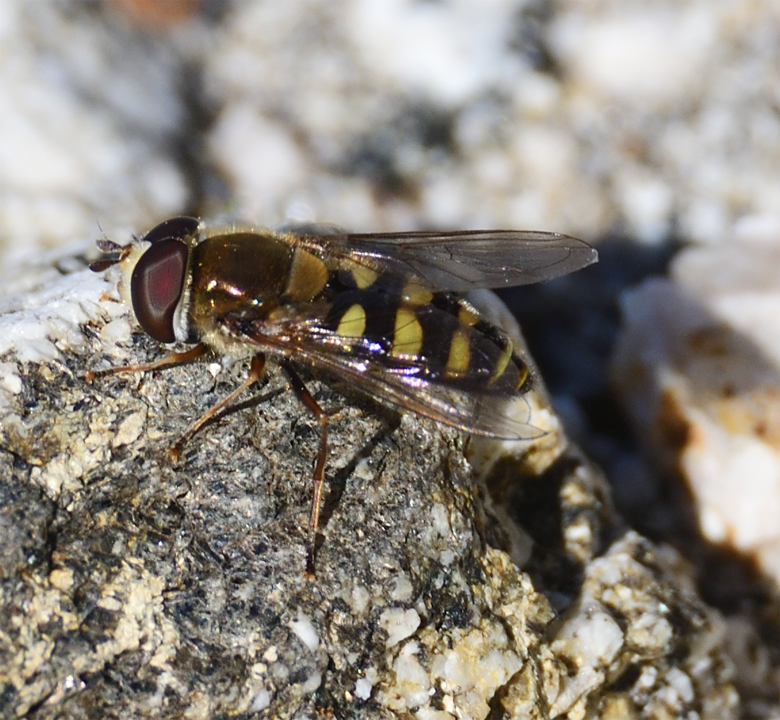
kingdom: Animalia
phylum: Arthropoda
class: Insecta
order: Diptera
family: Syrphidae
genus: Eupeodes
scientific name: Eupeodes fumipennis
